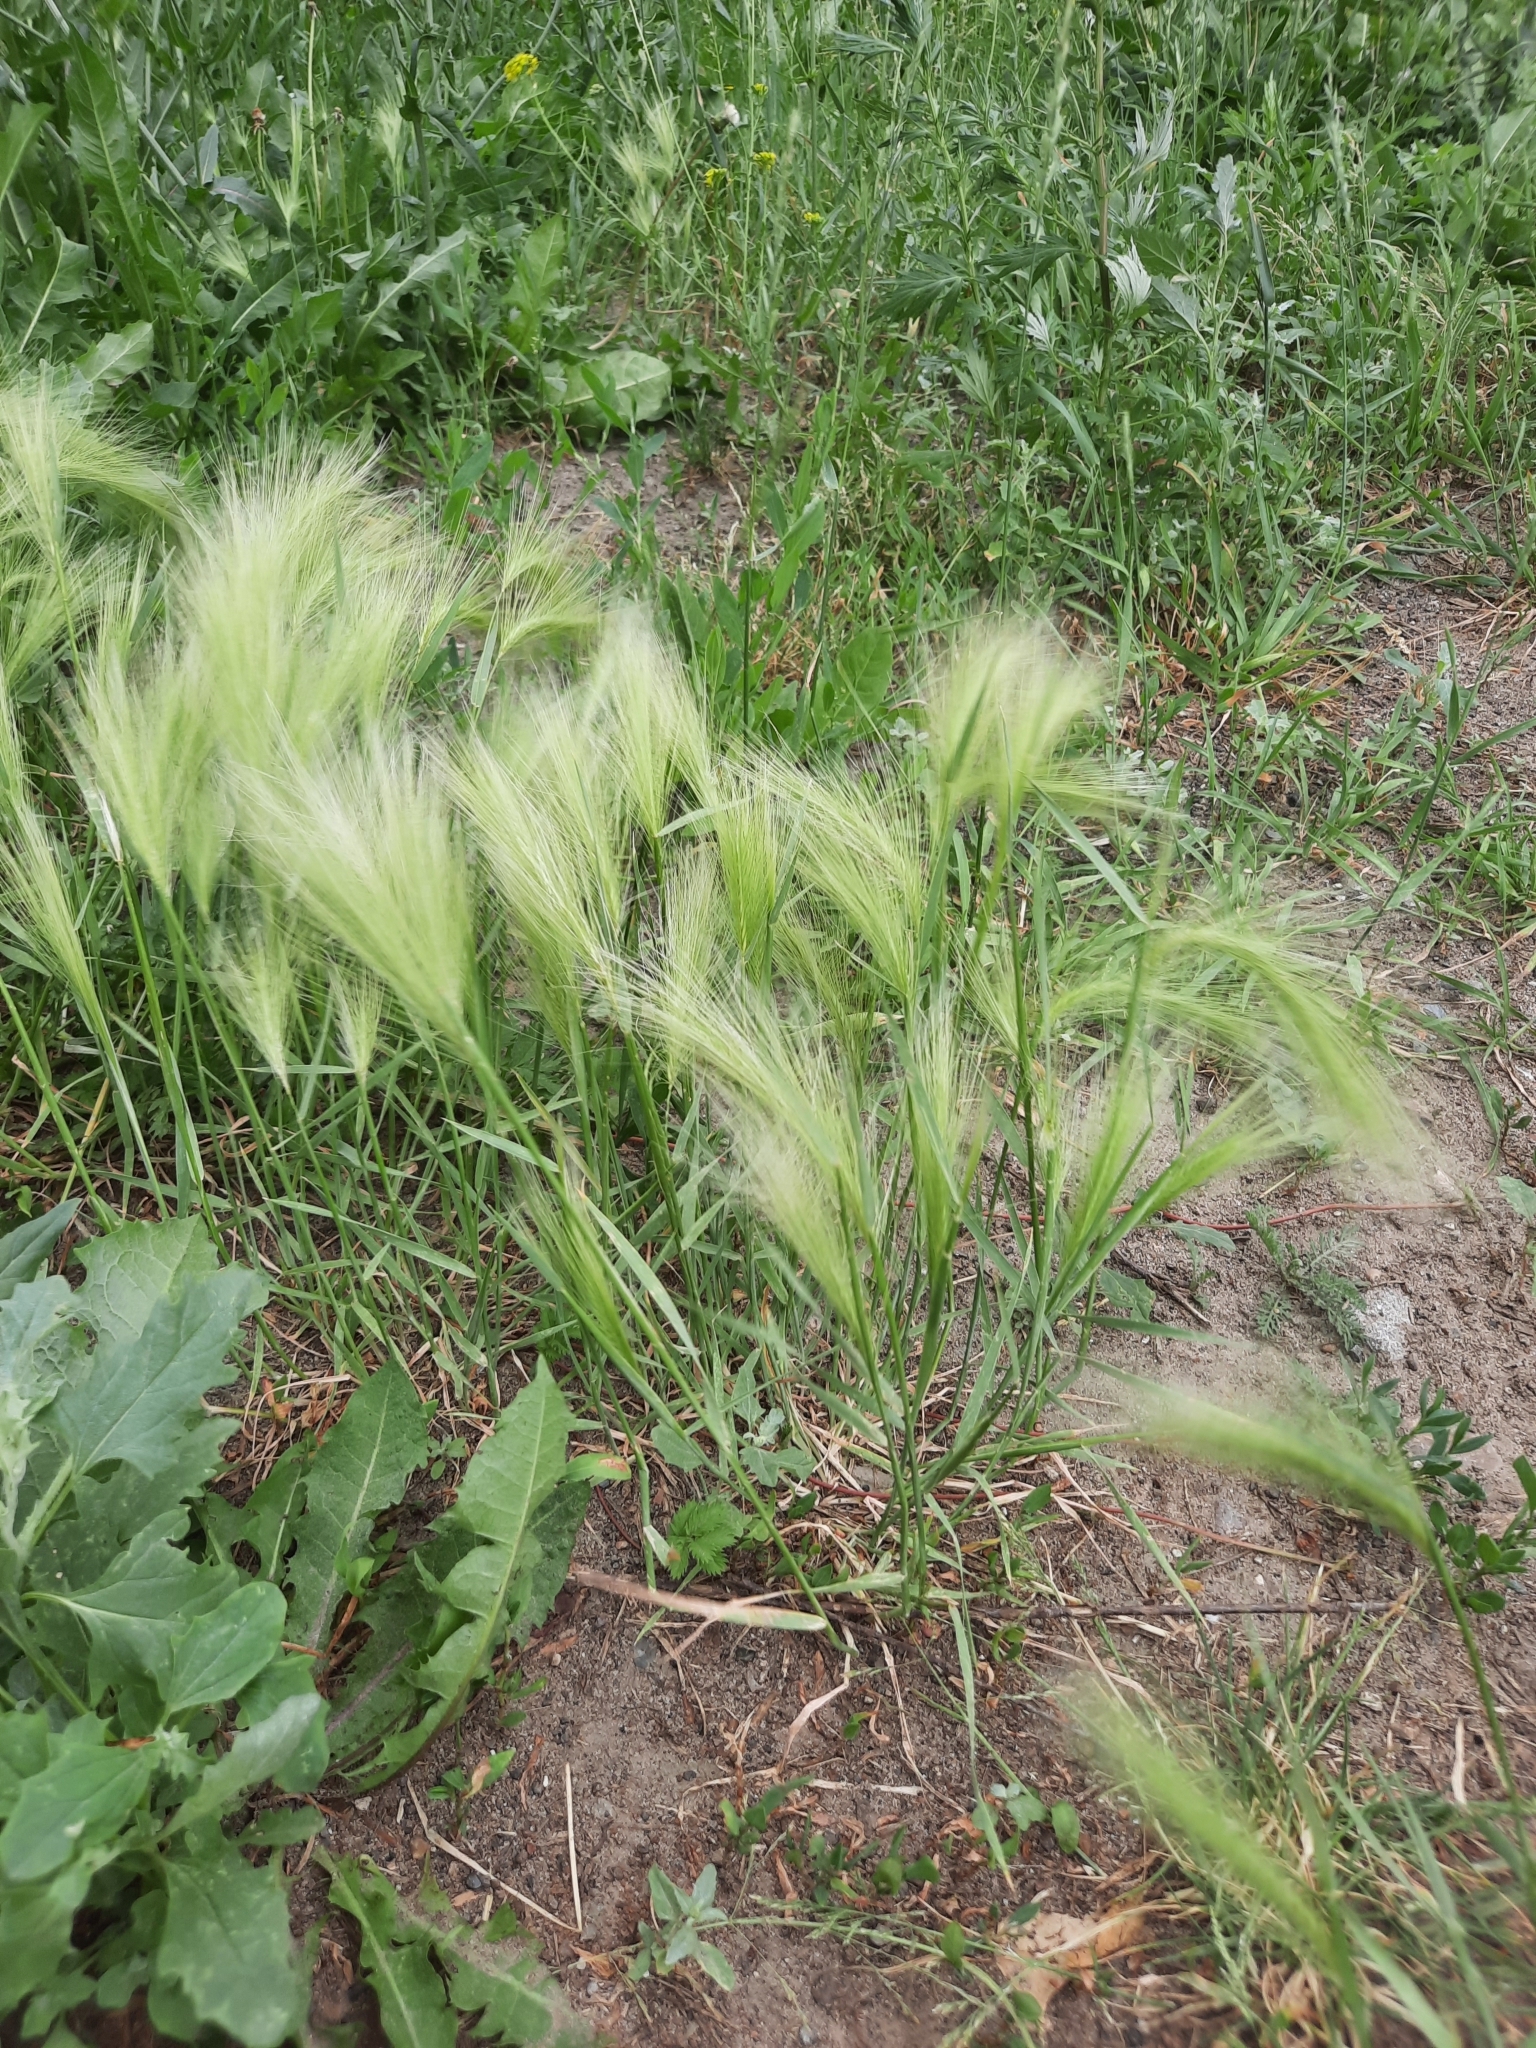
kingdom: Plantae
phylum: Tracheophyta
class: Liliopsida
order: Poales
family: Poaceae
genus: Hordeum
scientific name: Hordeum jubatum
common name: Foxtail barley
